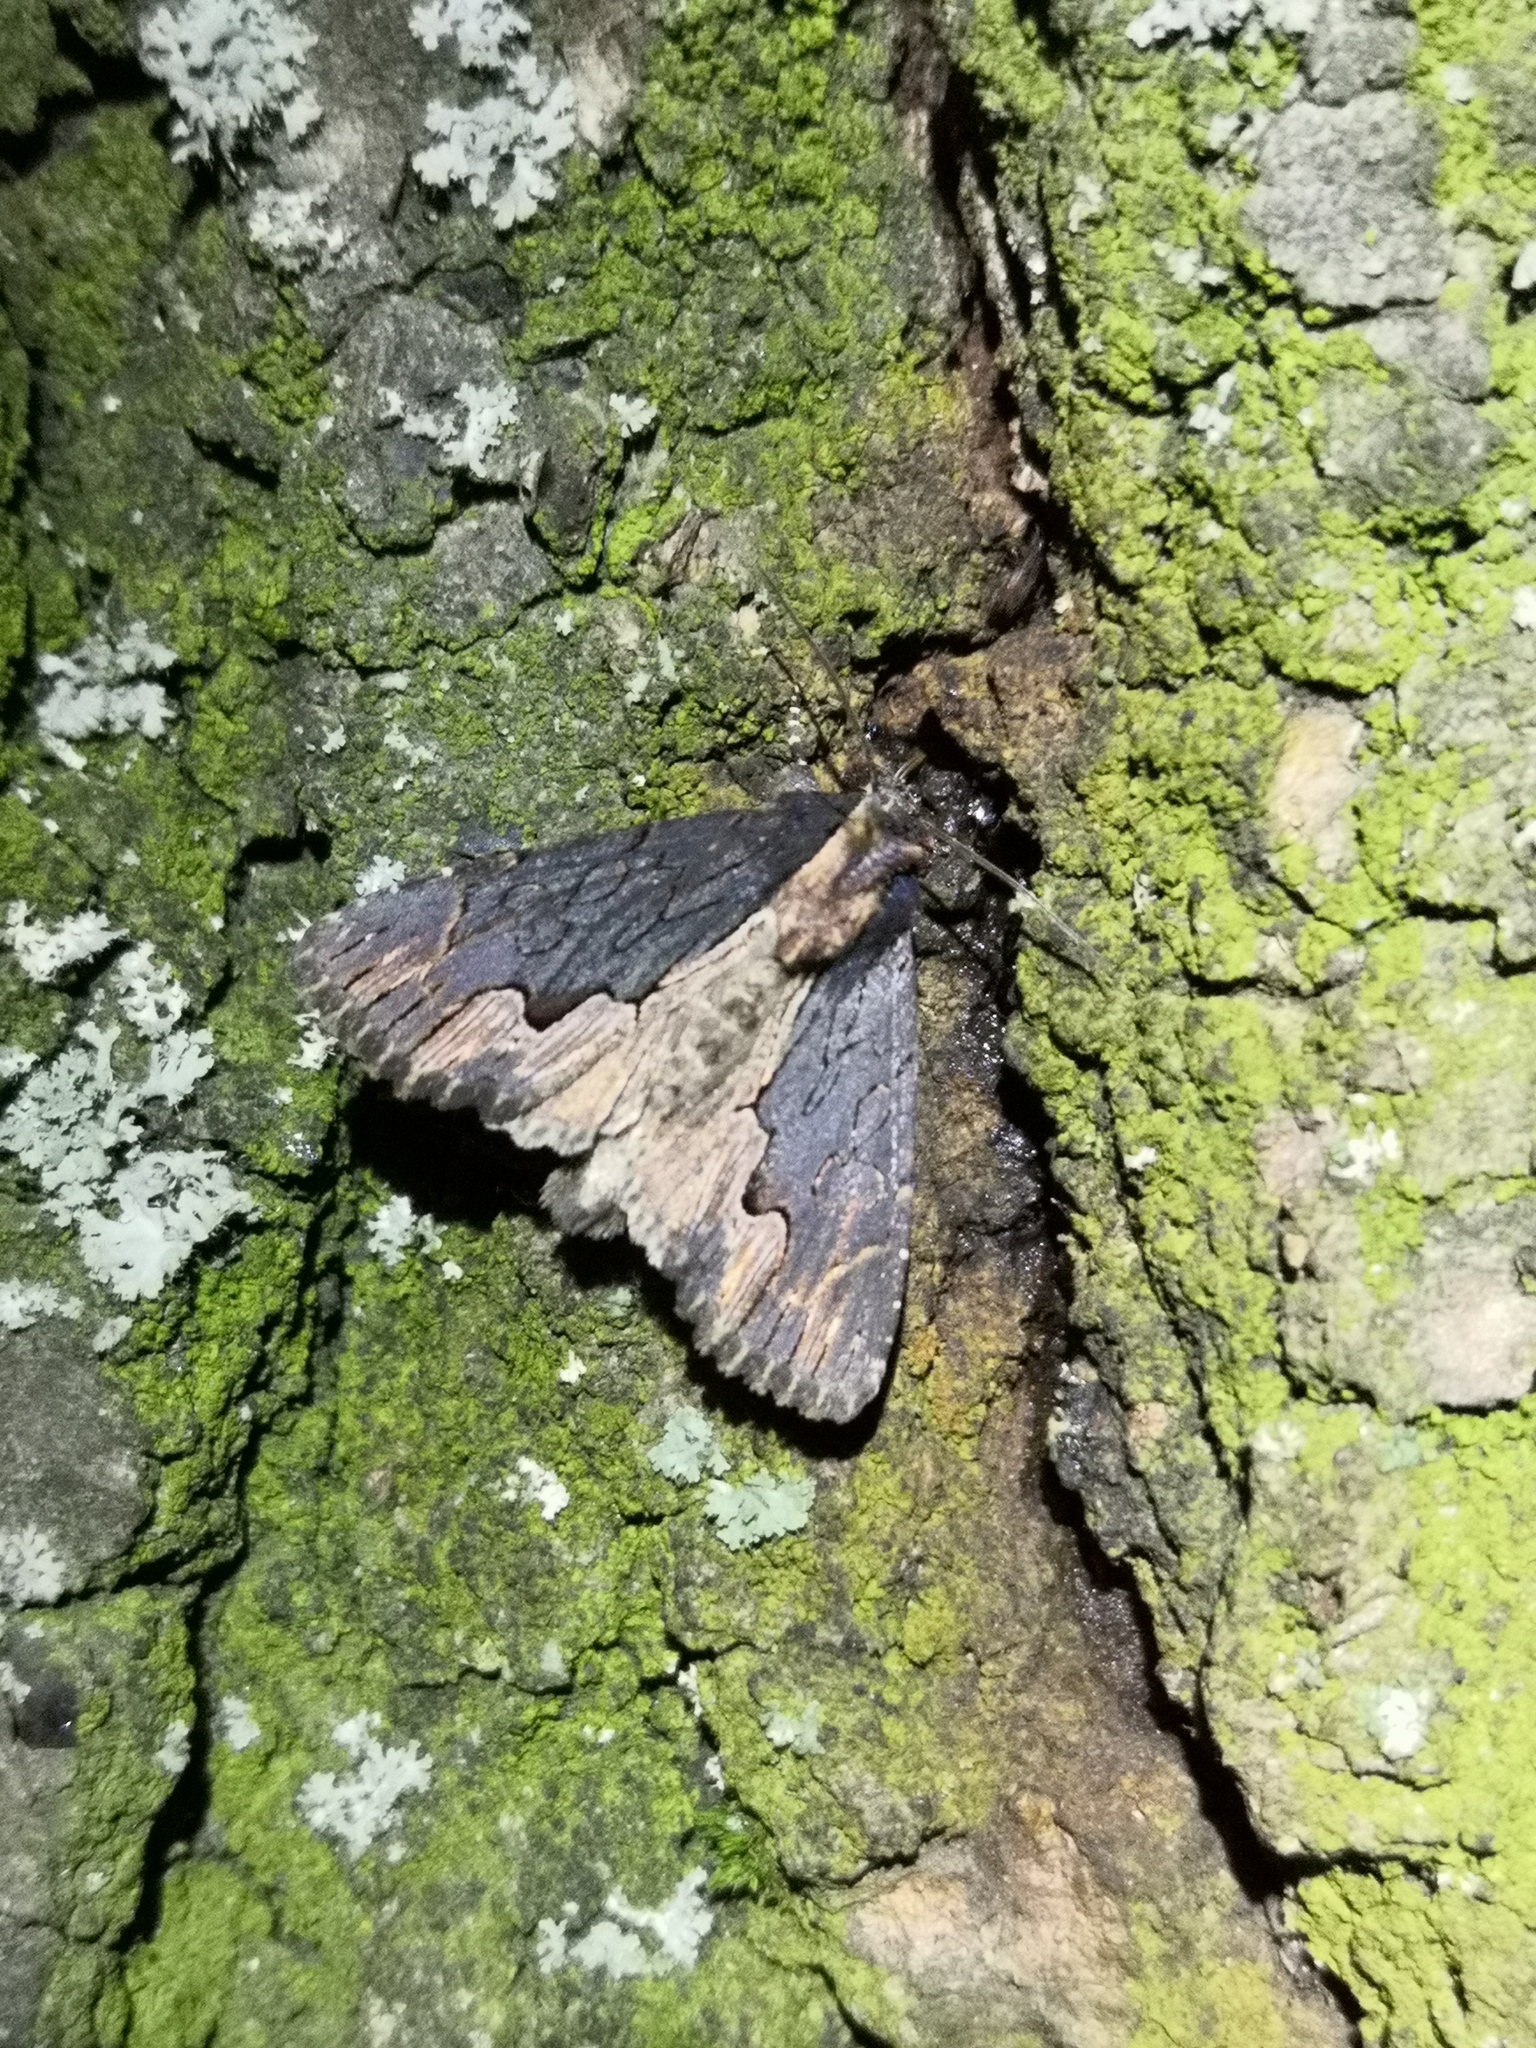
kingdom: Animalia
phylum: Arthropoda
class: Insecta
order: Lepidoptera
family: Noctuidae
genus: Dypterygia
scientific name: Dypterygia scabriuscula
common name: Bird's wing
